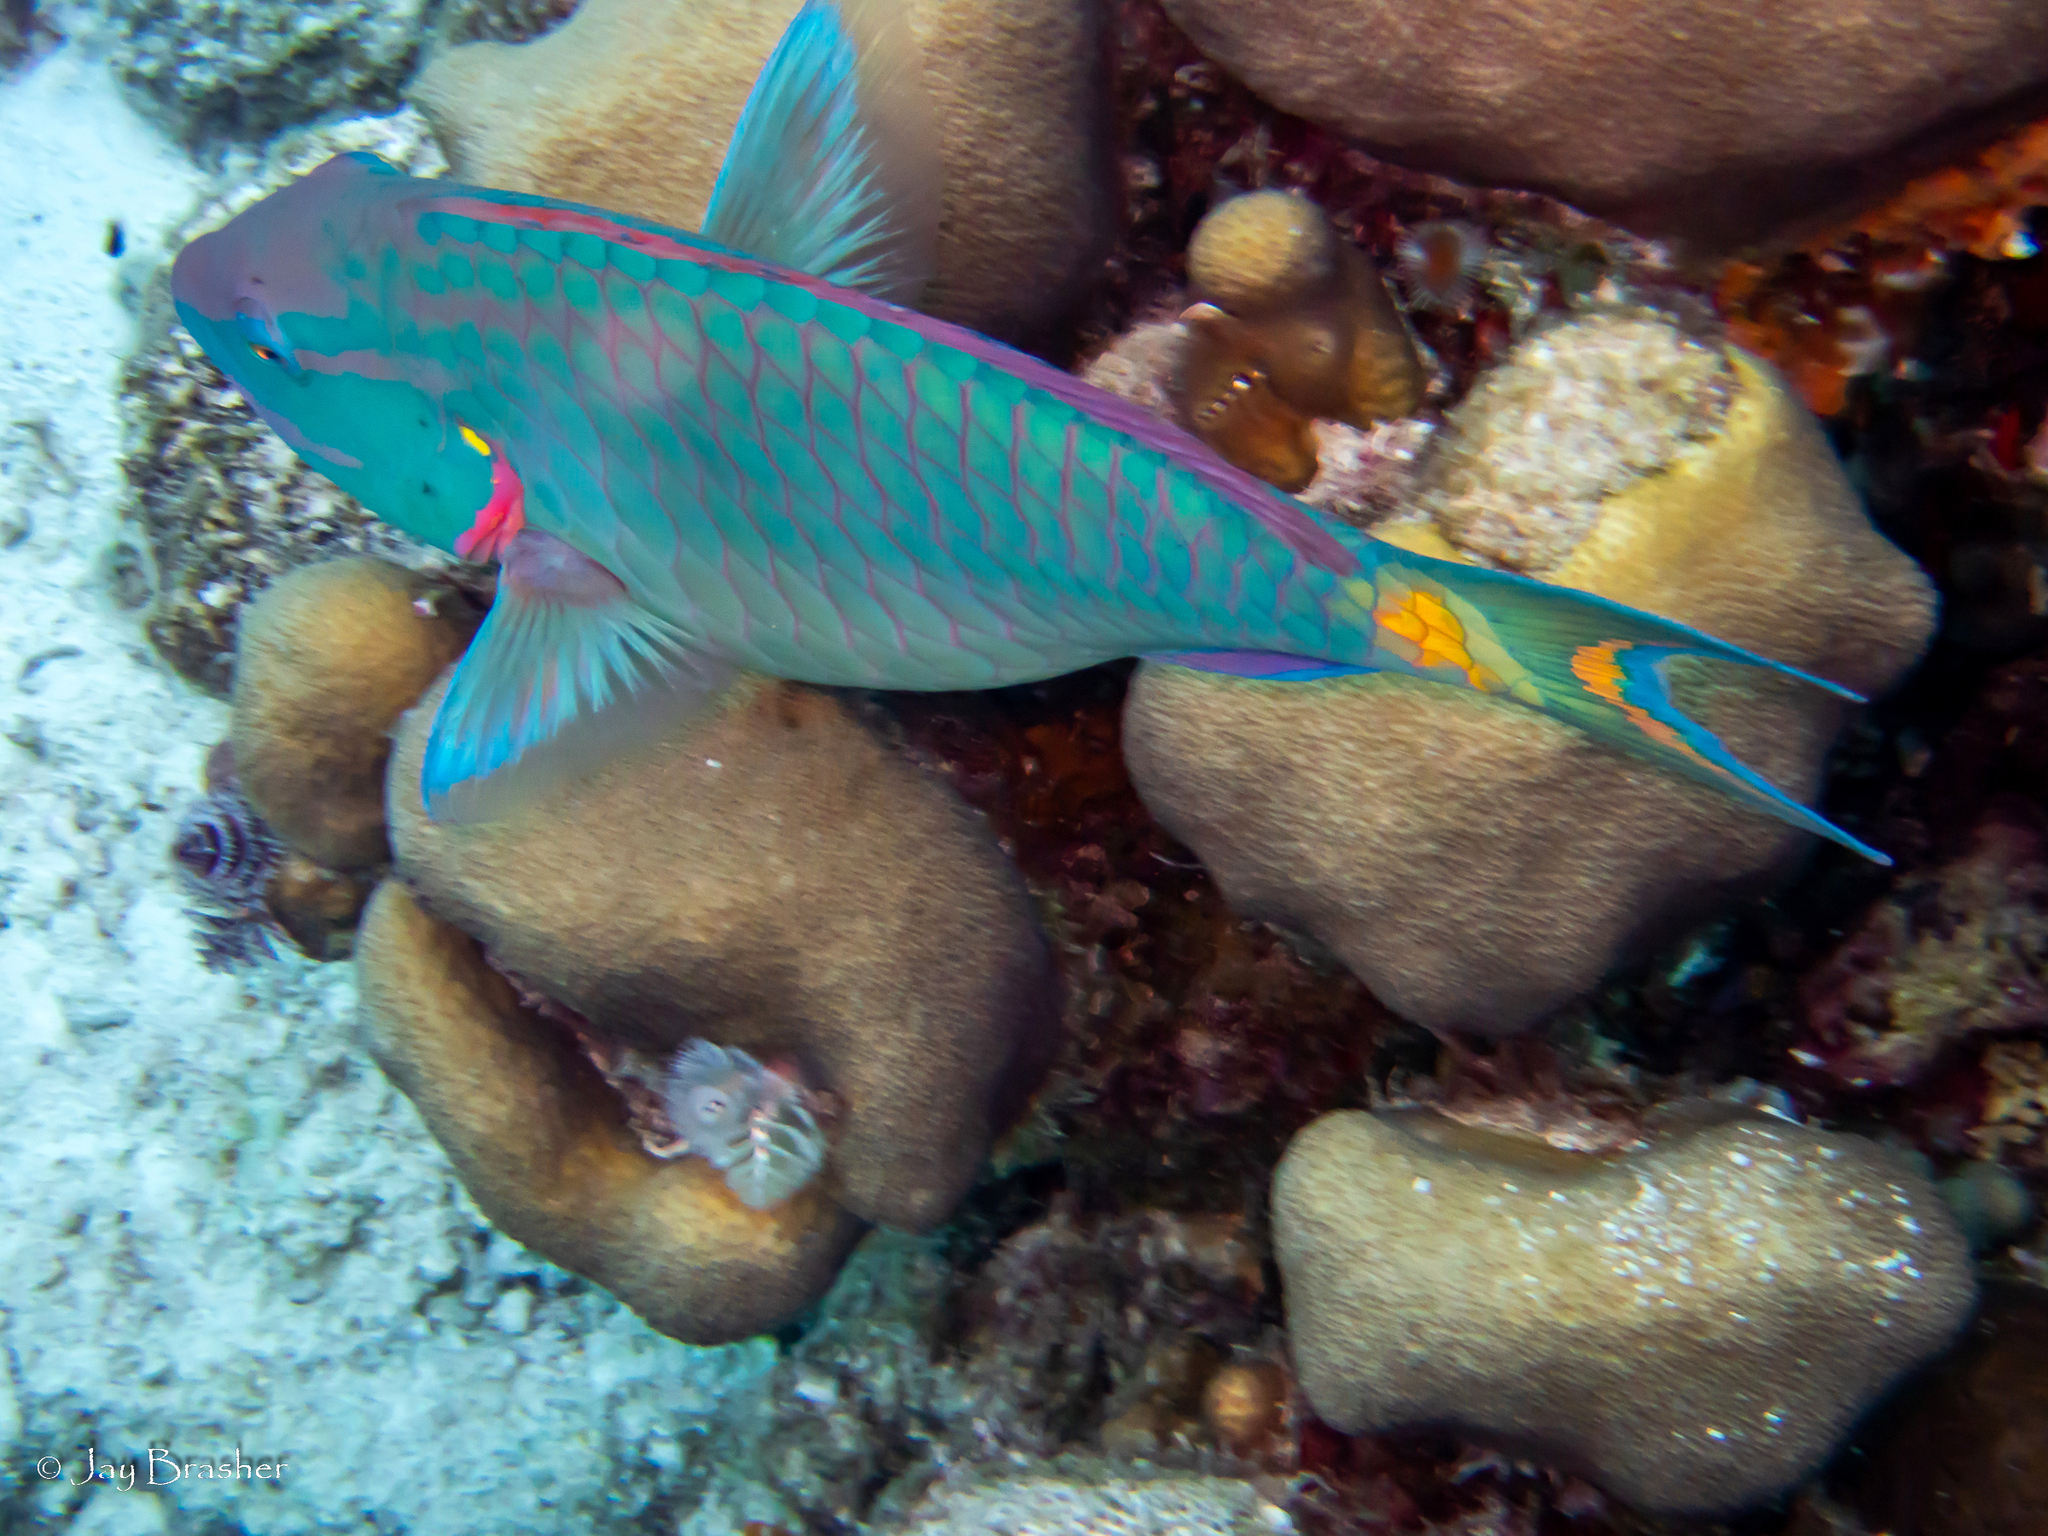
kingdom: Animalia
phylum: Chordata
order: Perciformes
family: Scaridae
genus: Sparisoma
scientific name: Sparisoma viride
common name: Stoplight parrotfish
